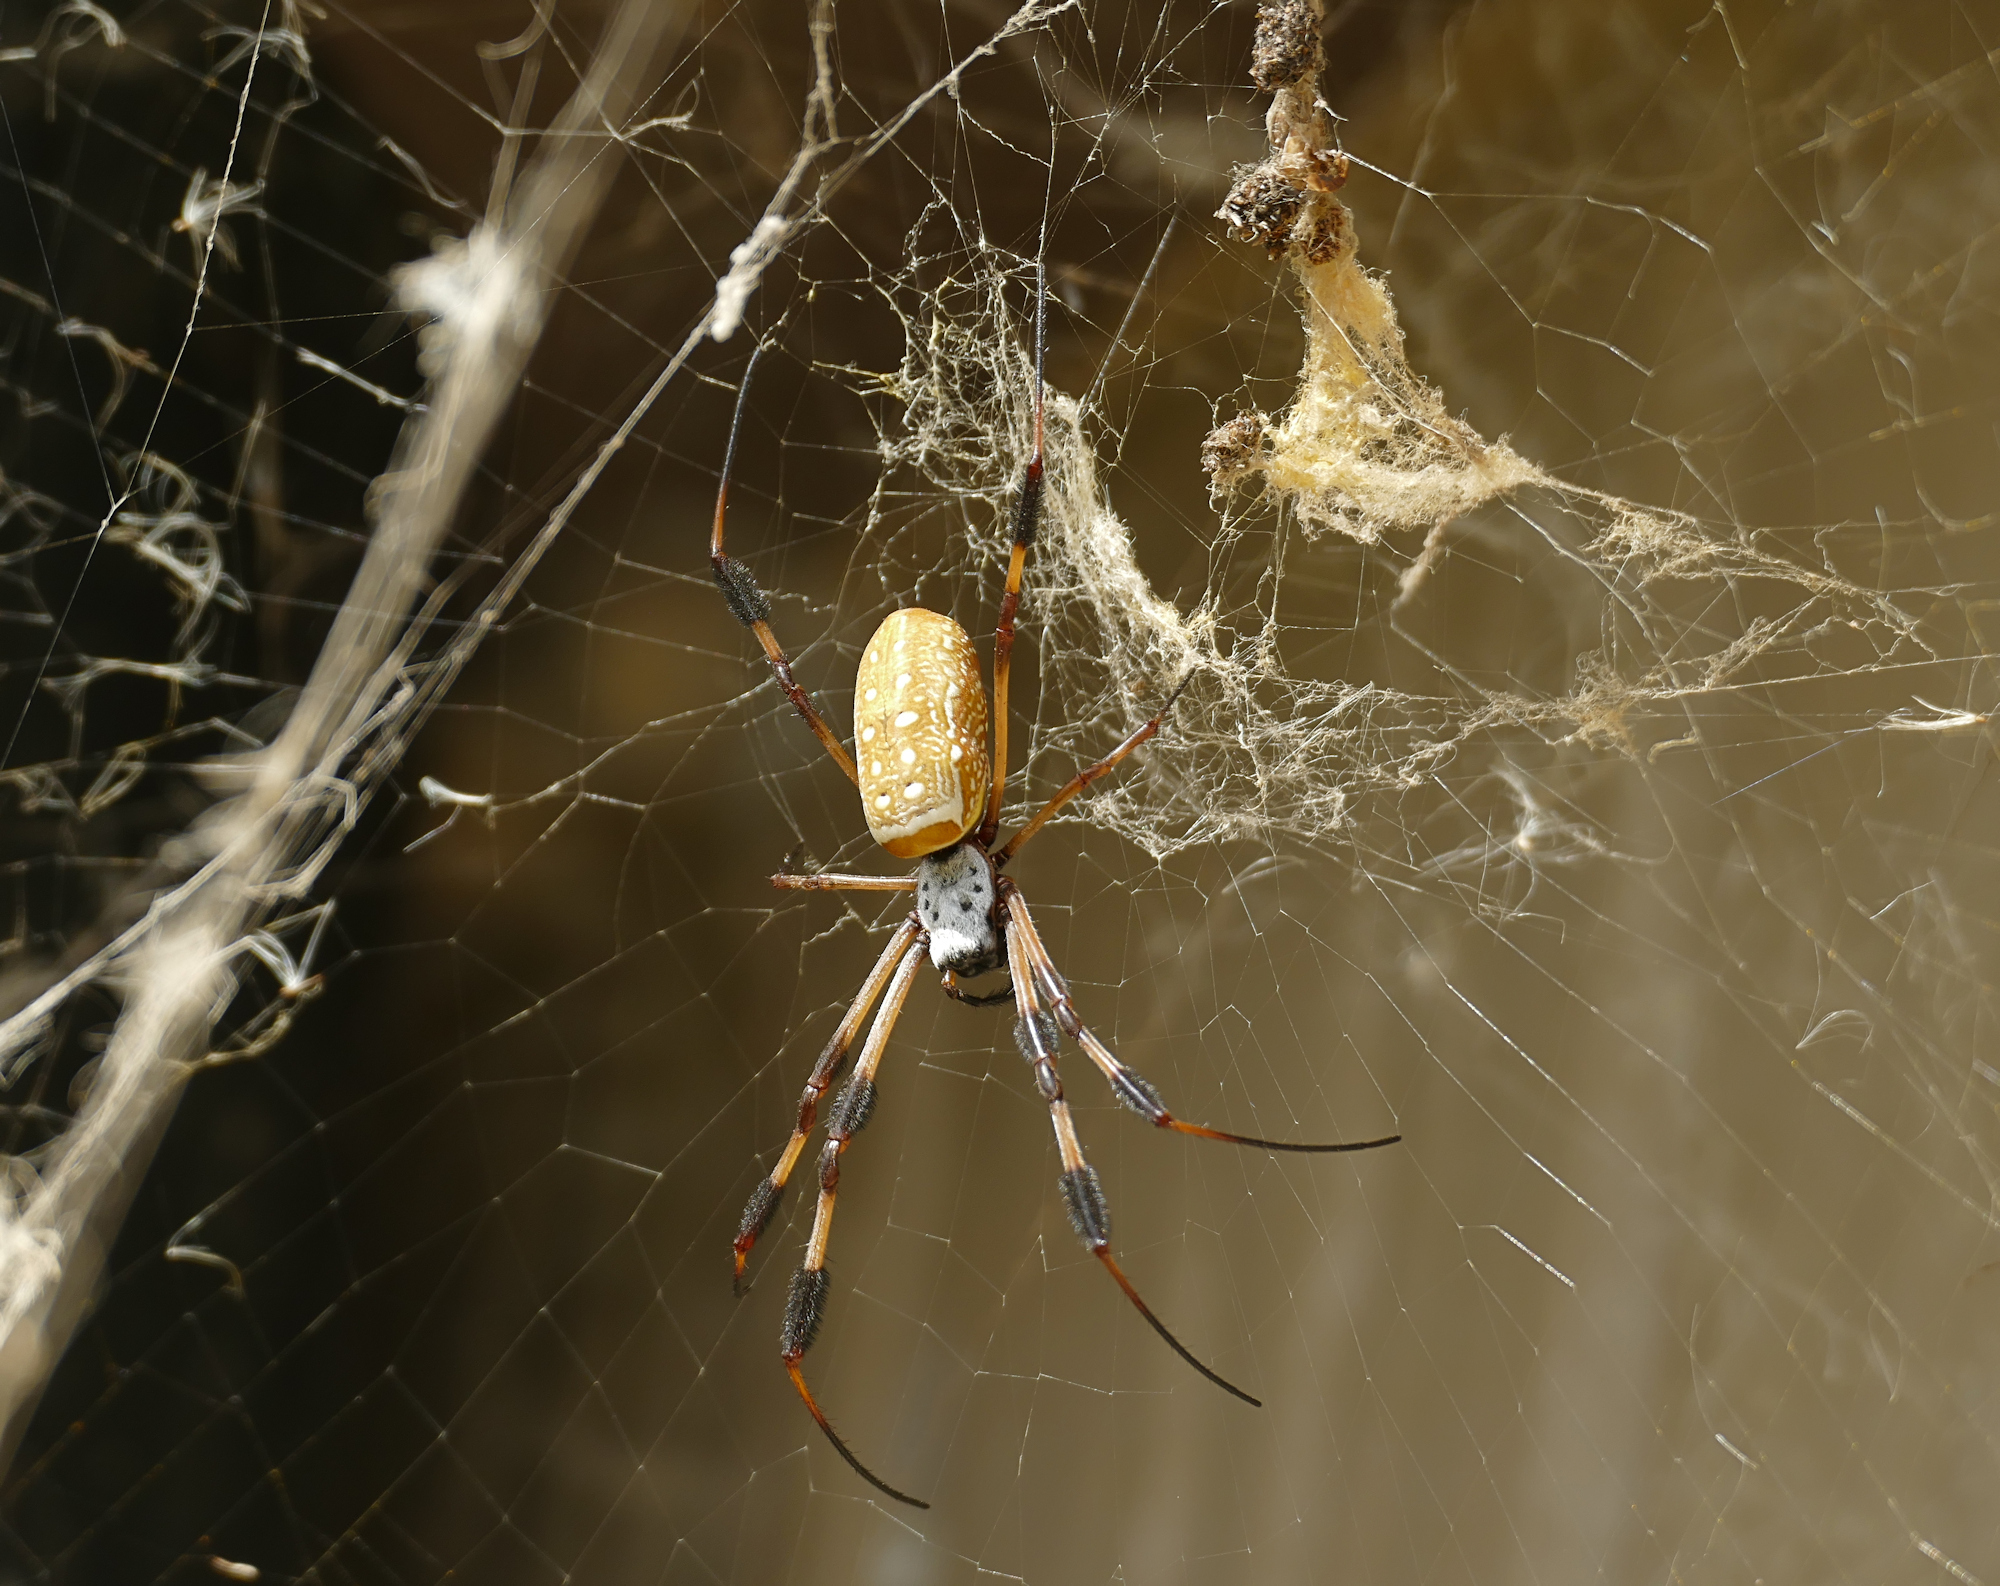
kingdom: Animalia
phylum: Arthropoda
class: Arachnida
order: Araneae
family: Araneidae
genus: Trichonephila
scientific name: Trichonephila clavipes
